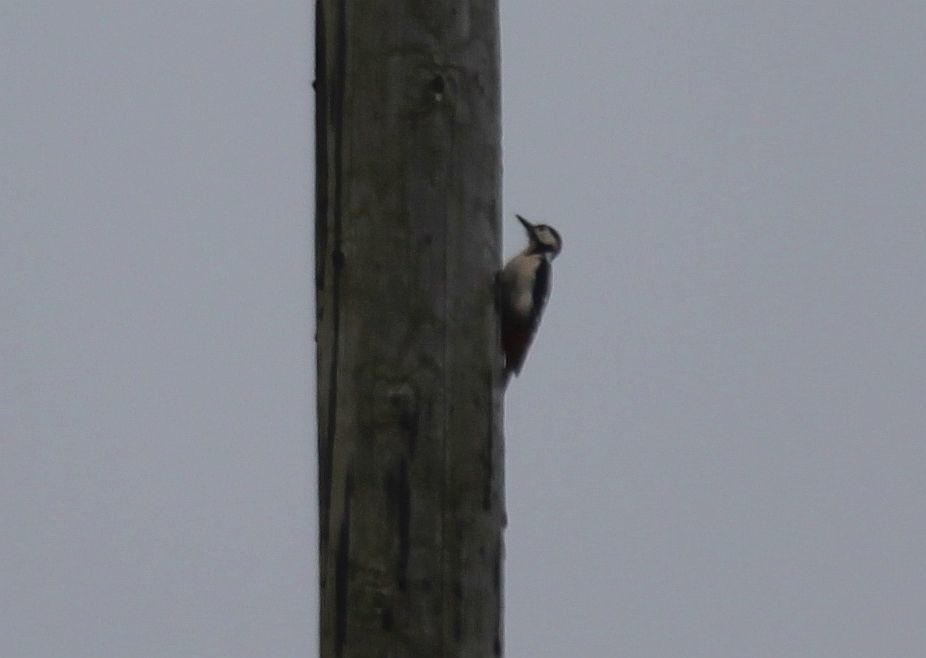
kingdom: Animalia
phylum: Chordata
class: Aves
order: Piciformes
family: Picidae
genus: Dendrocopos
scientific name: Dendrocopos major
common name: Great spotted woodpecker
